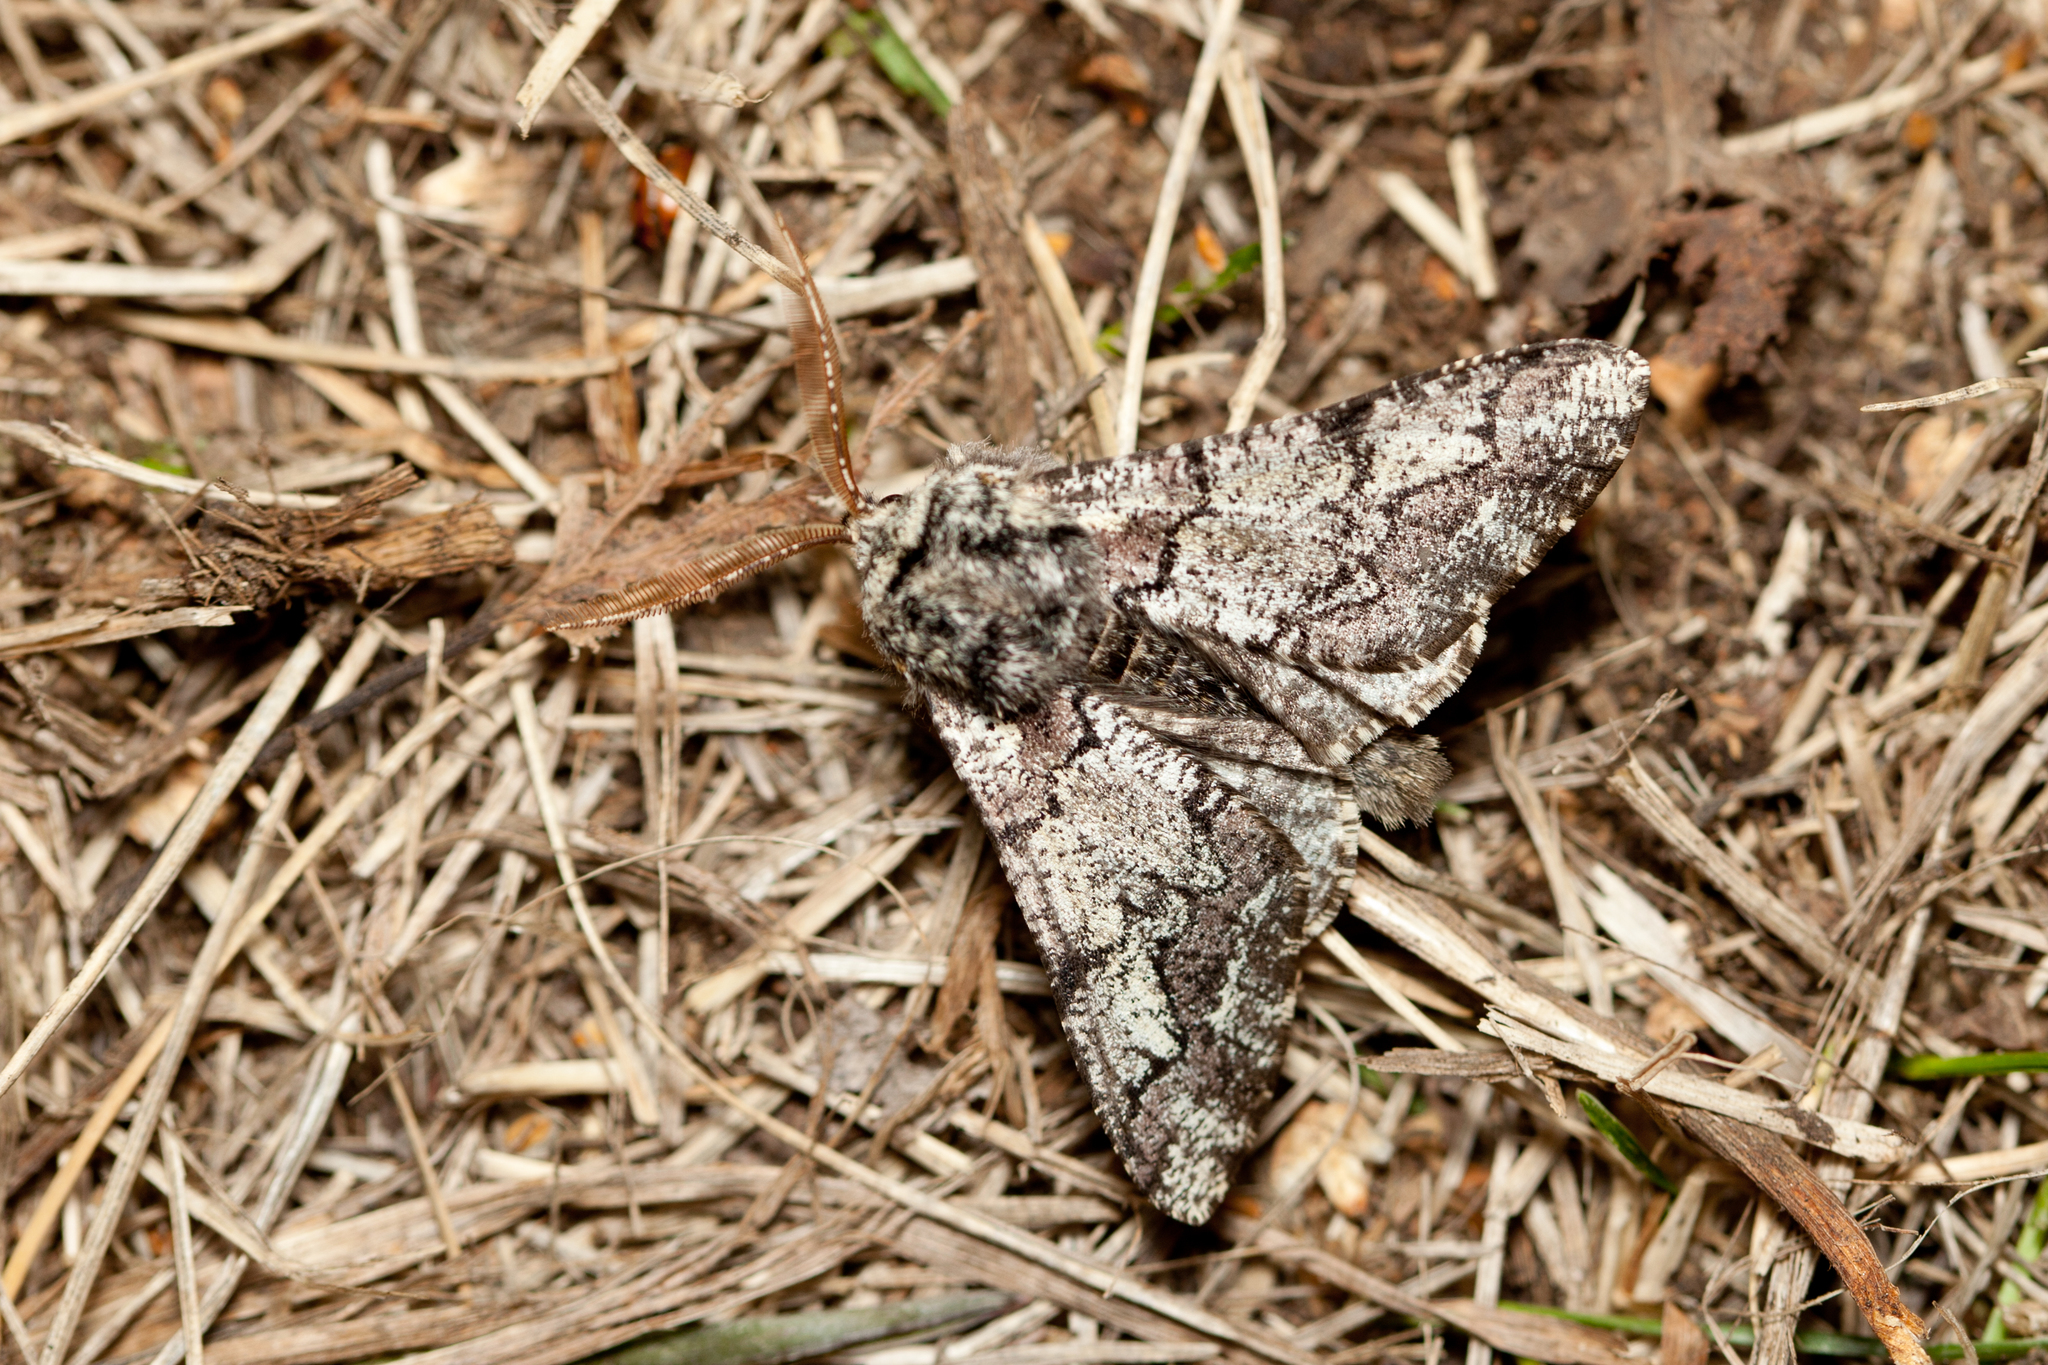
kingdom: Animalia
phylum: Arthropoda
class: Insecta
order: Lepidoptera
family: Geometridae
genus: Biston
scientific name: Biston strataria
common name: Oak beauty
